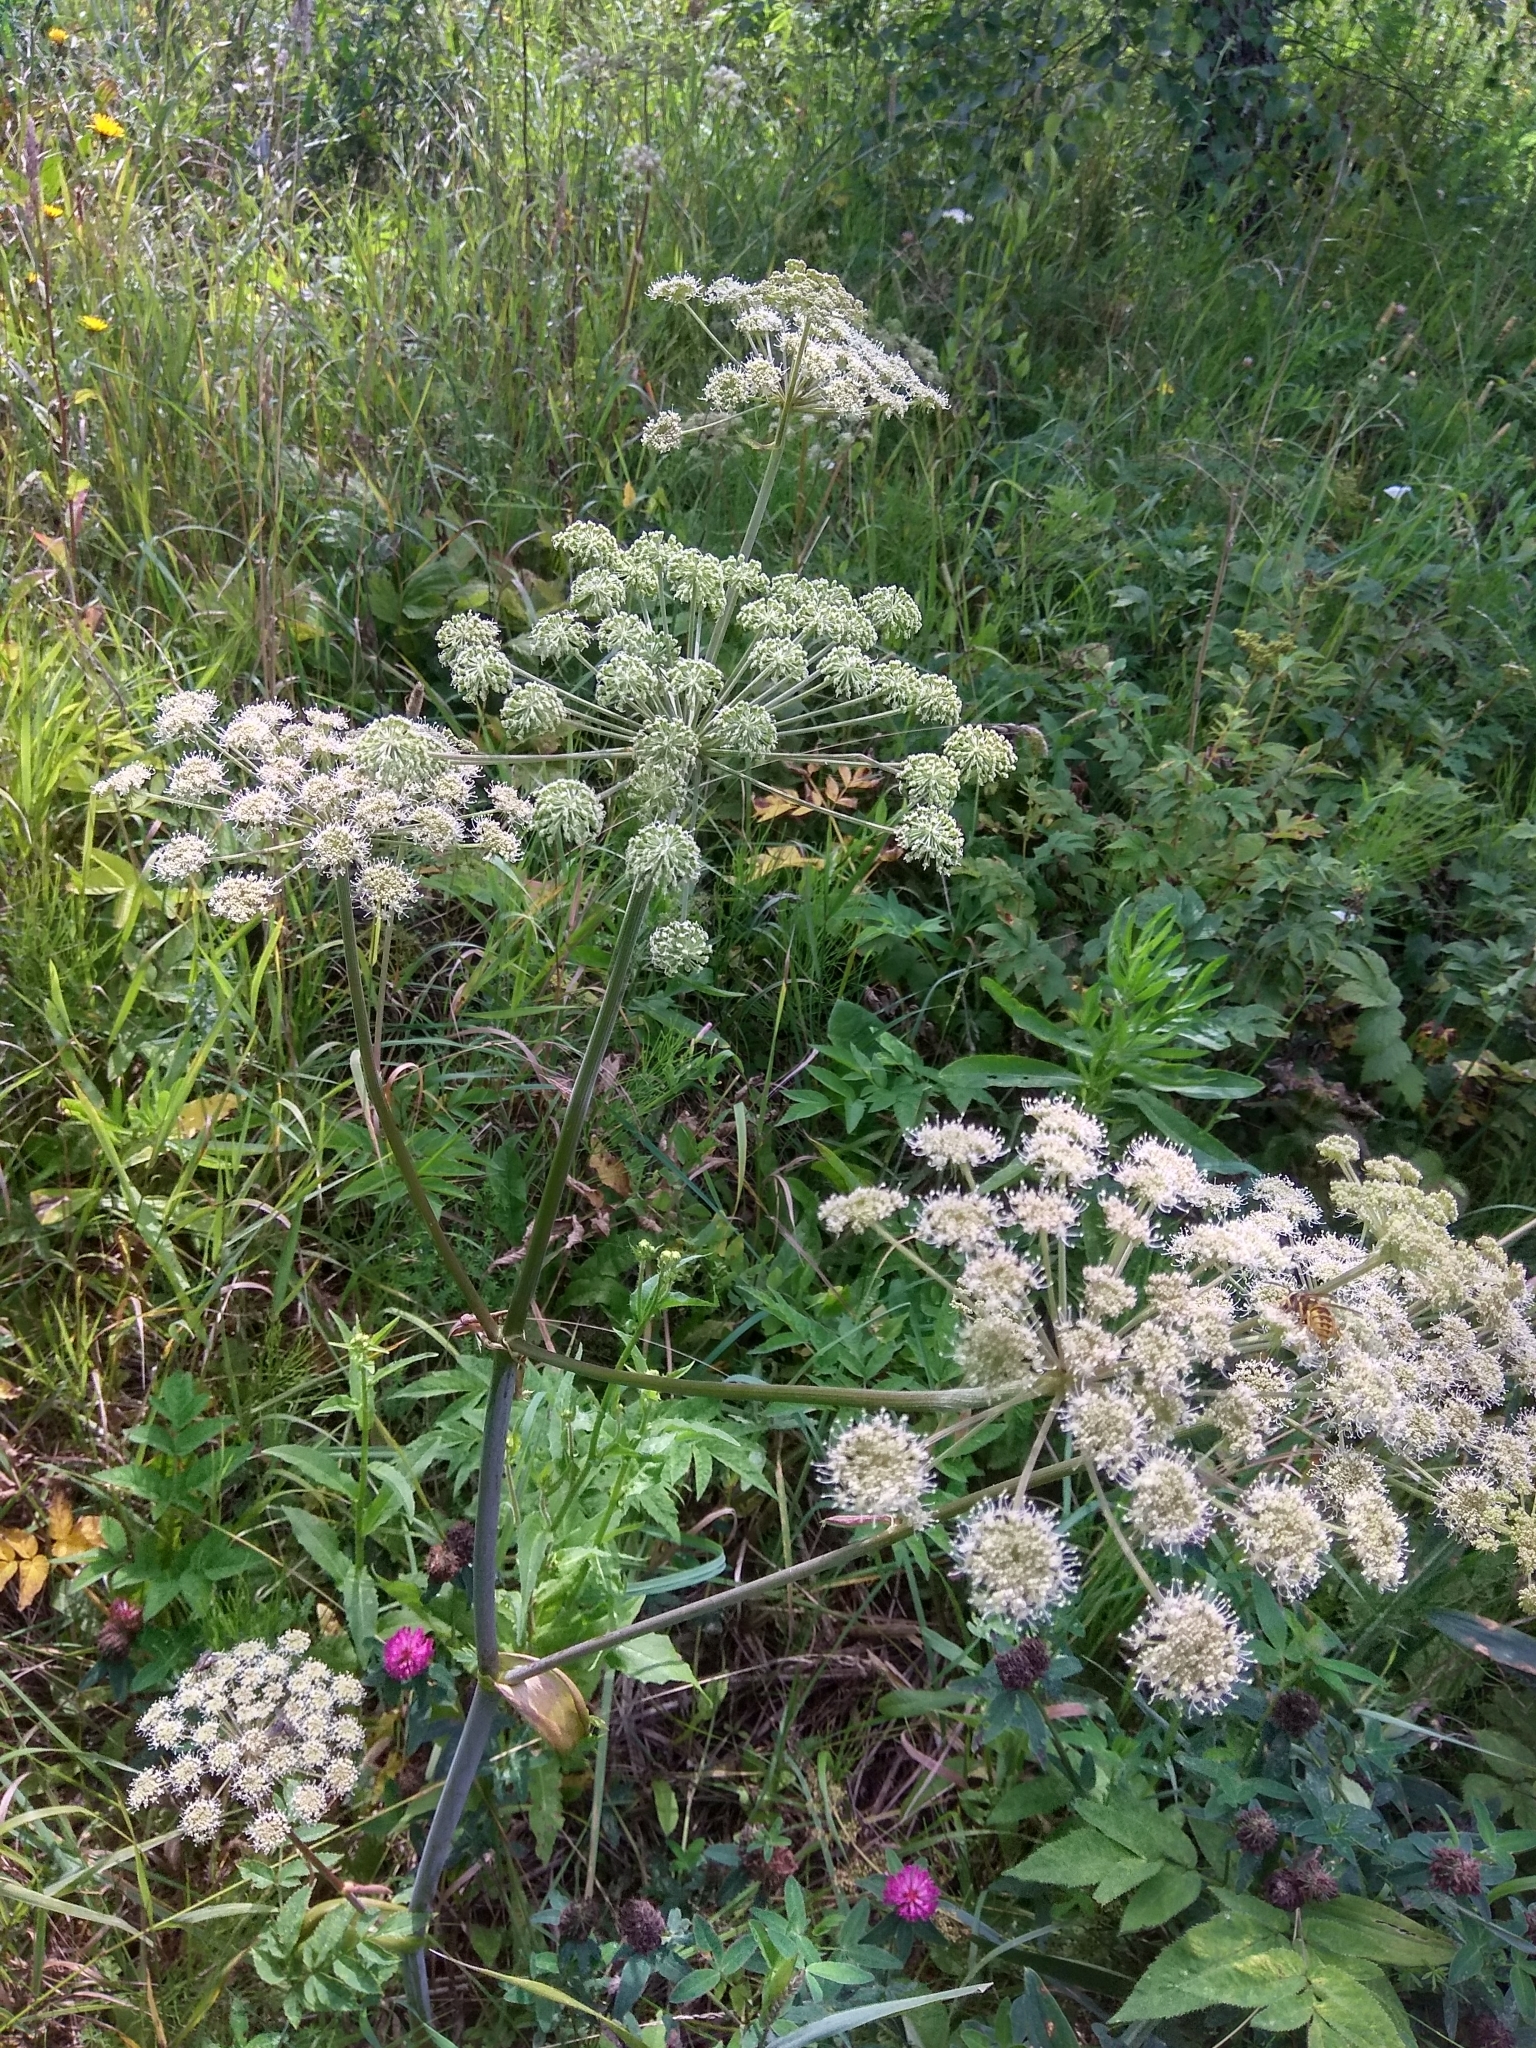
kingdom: Plantae
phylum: Tracheophyta
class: Magnoliopsida
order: Apiales
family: Apiaceae
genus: Angelica
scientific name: Angelica sylvestris
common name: Wild angelica
